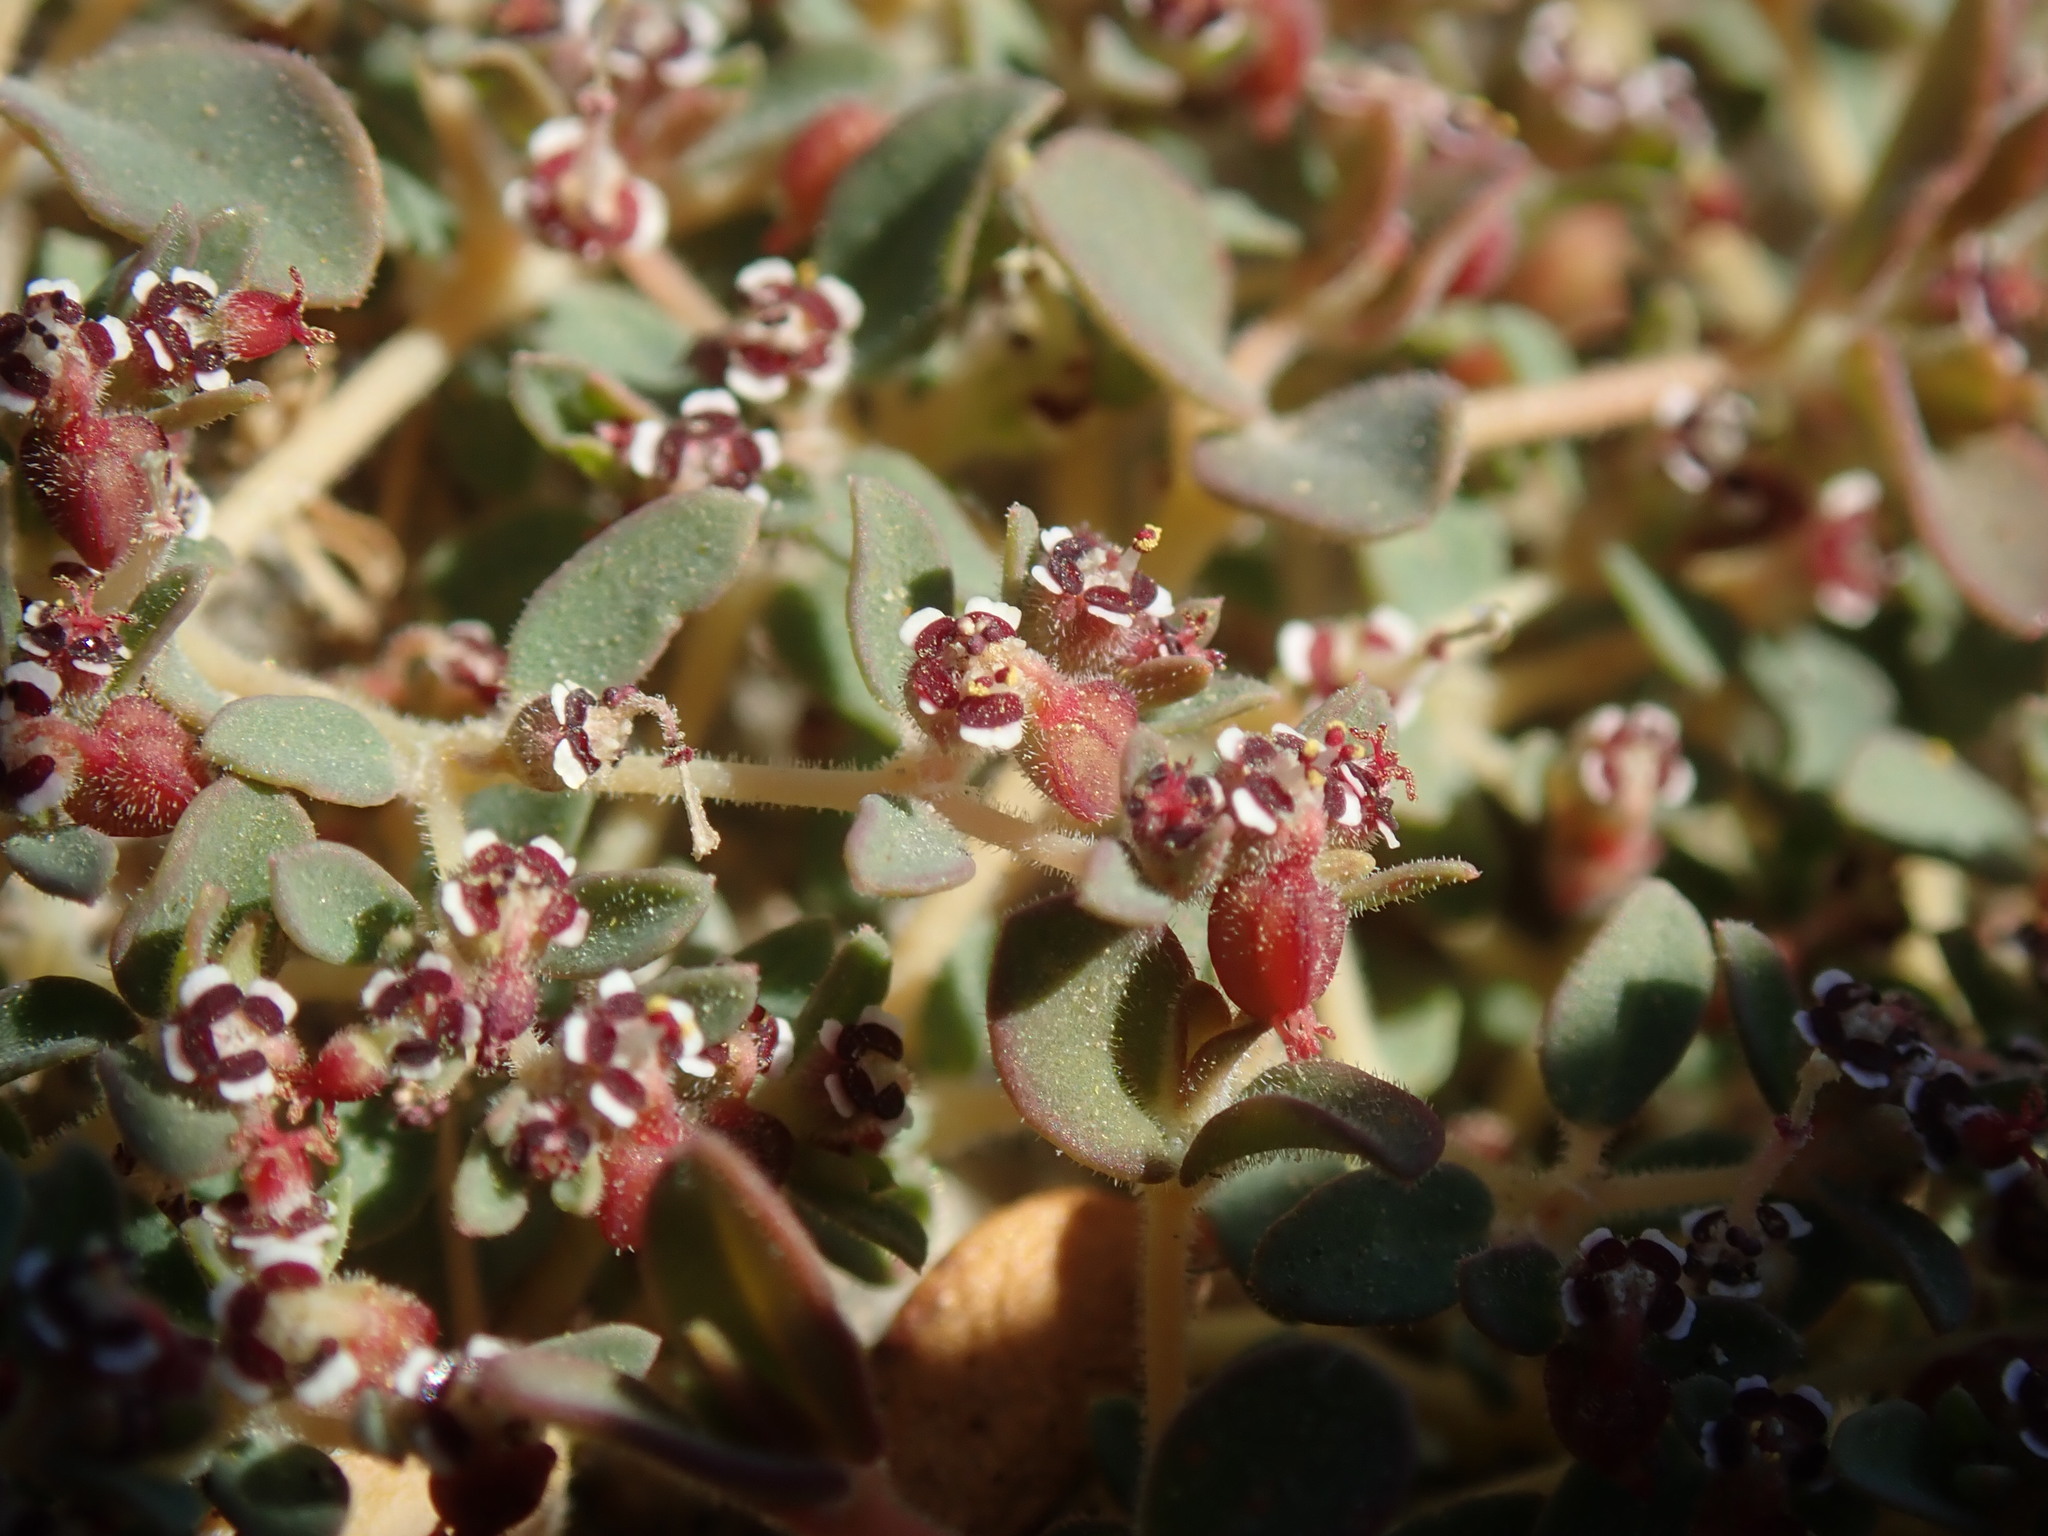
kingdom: Plantae
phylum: Tracheophyta
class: Magnoliopsida
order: Malpighiales
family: Euphorbiaceae
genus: Euphorbia
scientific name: Euphorbia polycarpa
